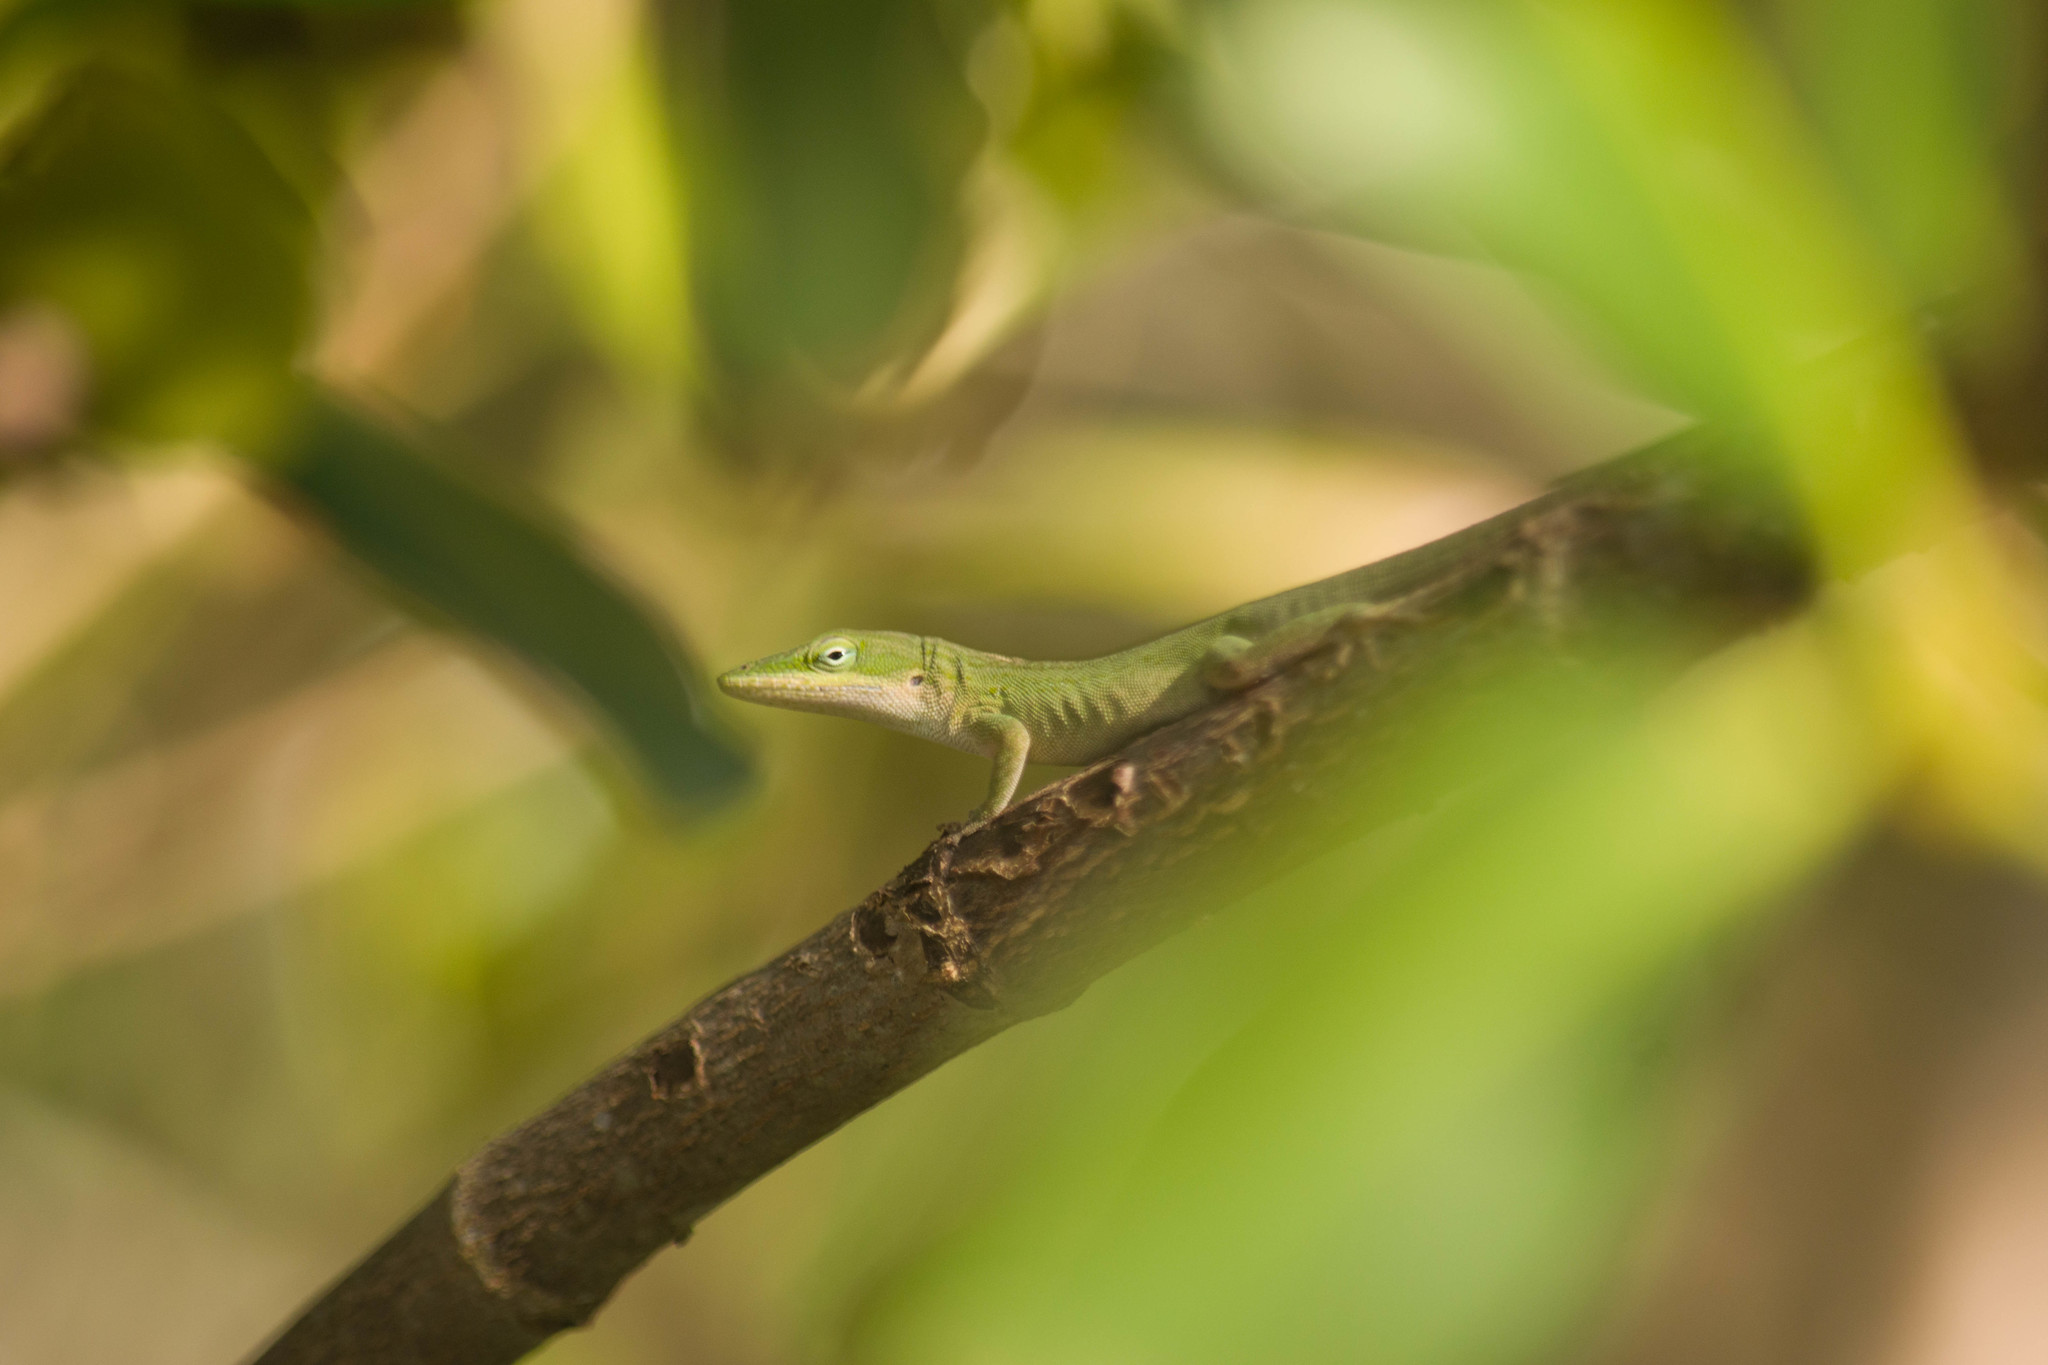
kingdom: Animalia
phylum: Chordata
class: Squamata
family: Dactyloidae
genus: Anolis
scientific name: Anolis carolinensis
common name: Green anole
